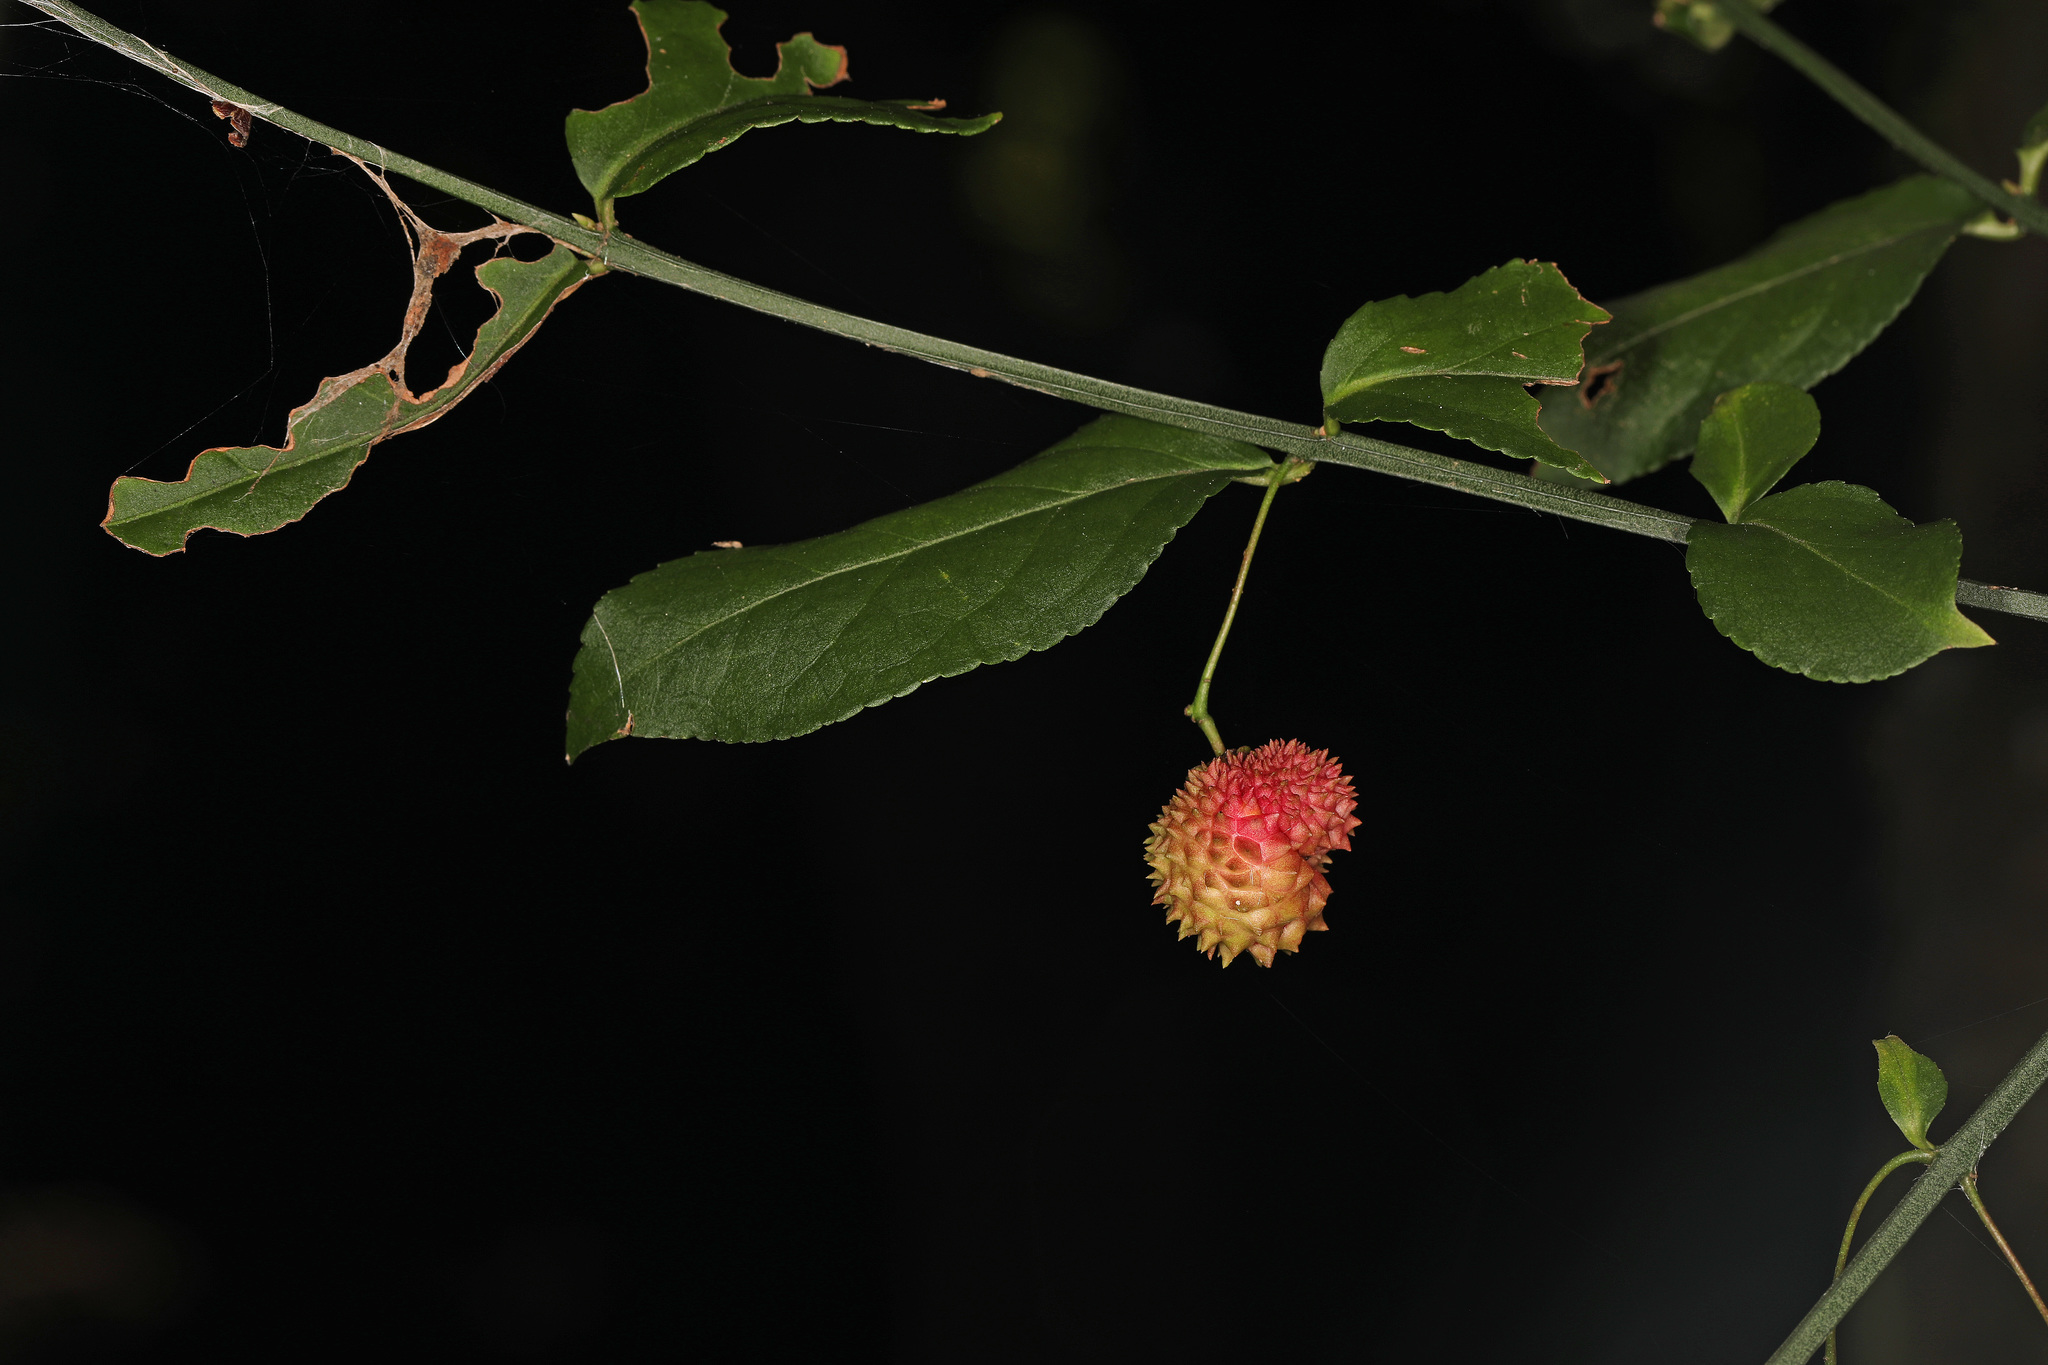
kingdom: Plantae
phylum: Tracheophyta
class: Magnoliopsida
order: Celastrales
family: Celastraceae
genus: Euonymus
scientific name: Euonymus americanus
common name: Bursting-heart
